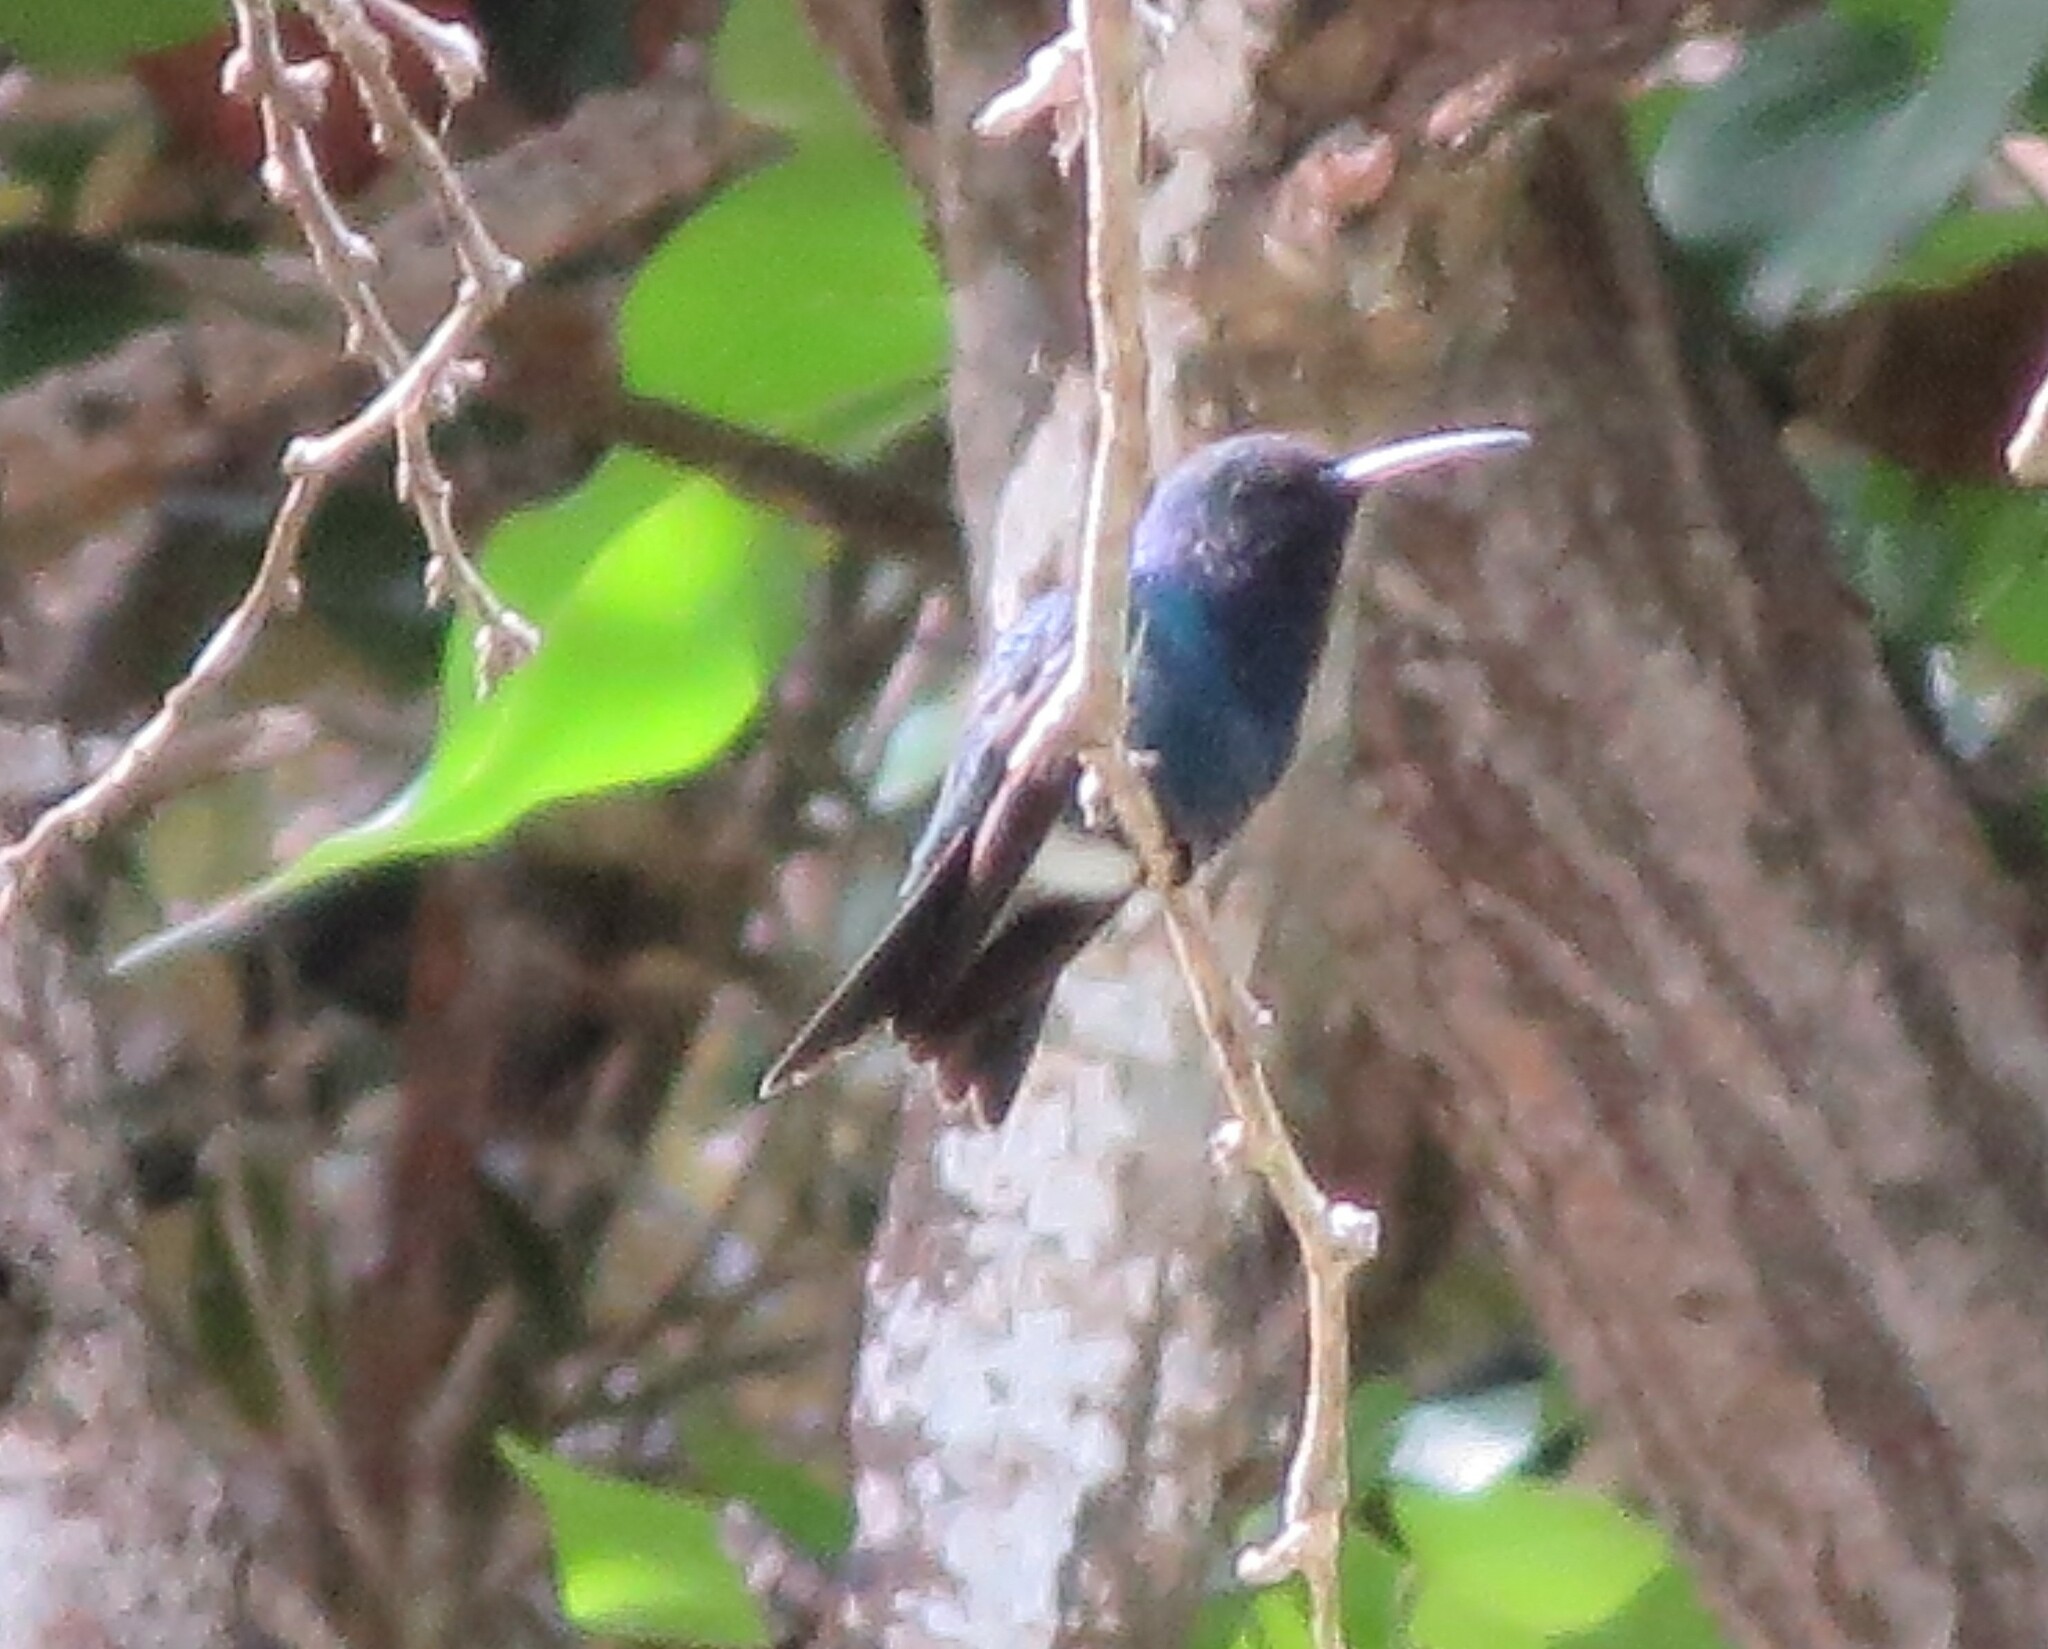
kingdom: Animalia
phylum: Chordata
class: Aves
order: Apodiformes
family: Trochilidae
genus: Chrysuronia
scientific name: Chrysuronia coeruleogularis
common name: Sapphire-throated hummingbird
